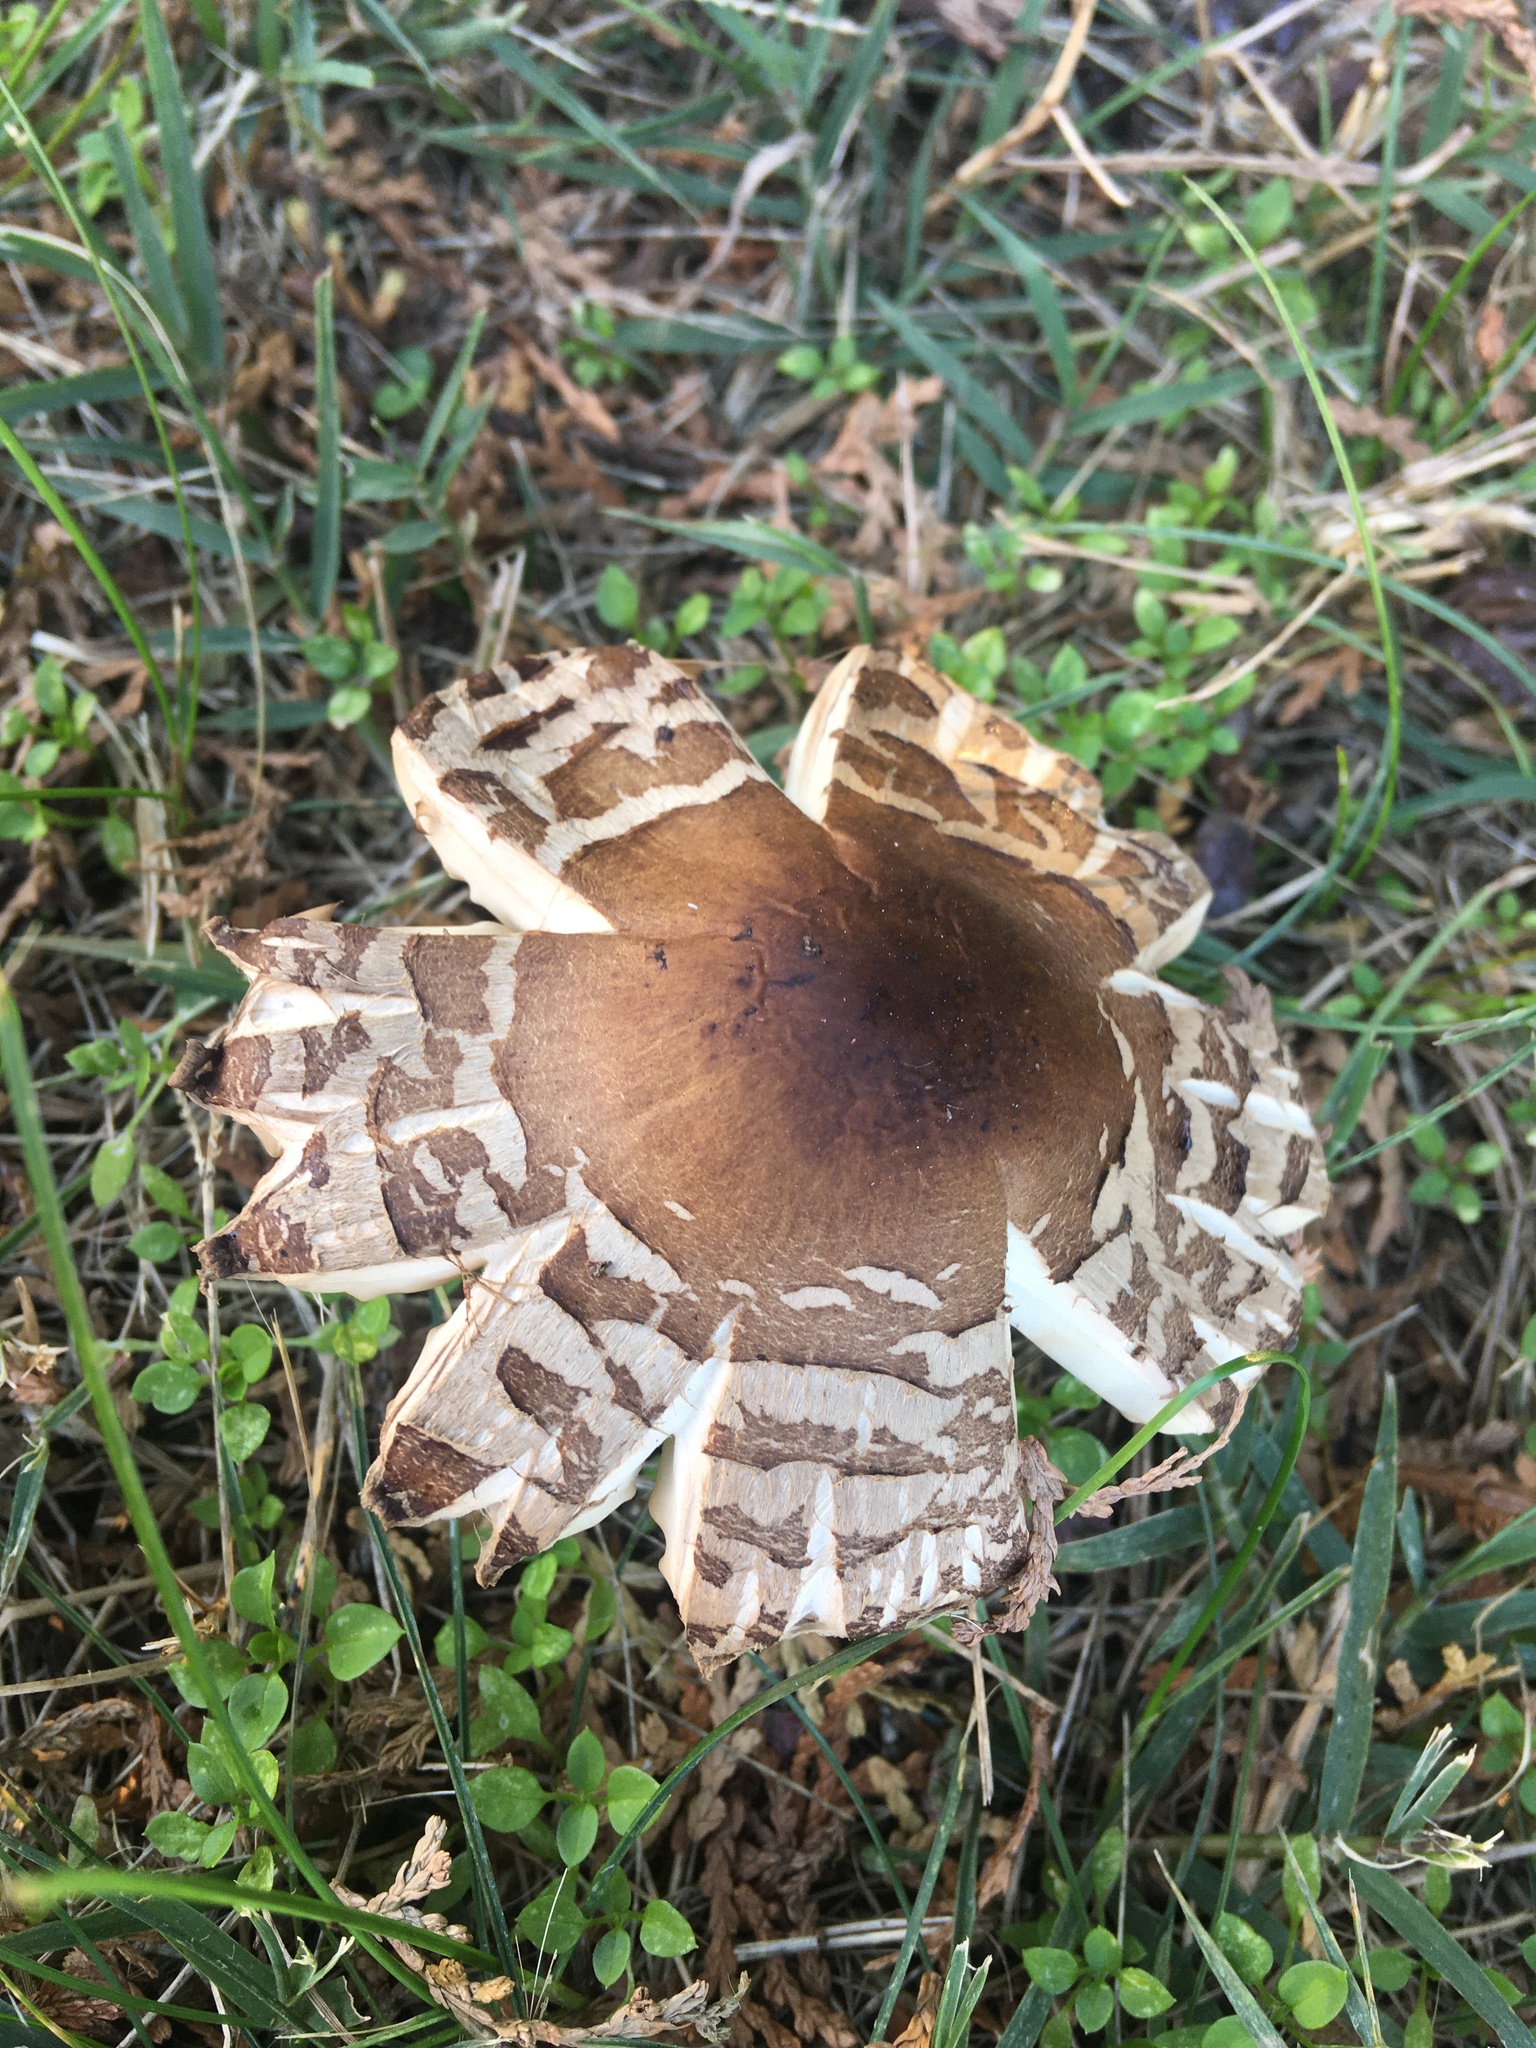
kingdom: Fungi
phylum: Basidiomycota
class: Agaricomycetes
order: Agaricales
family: Agaricaceae
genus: Chlorophyllum
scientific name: Chlorophyllum brunneum
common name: Brown parasol
